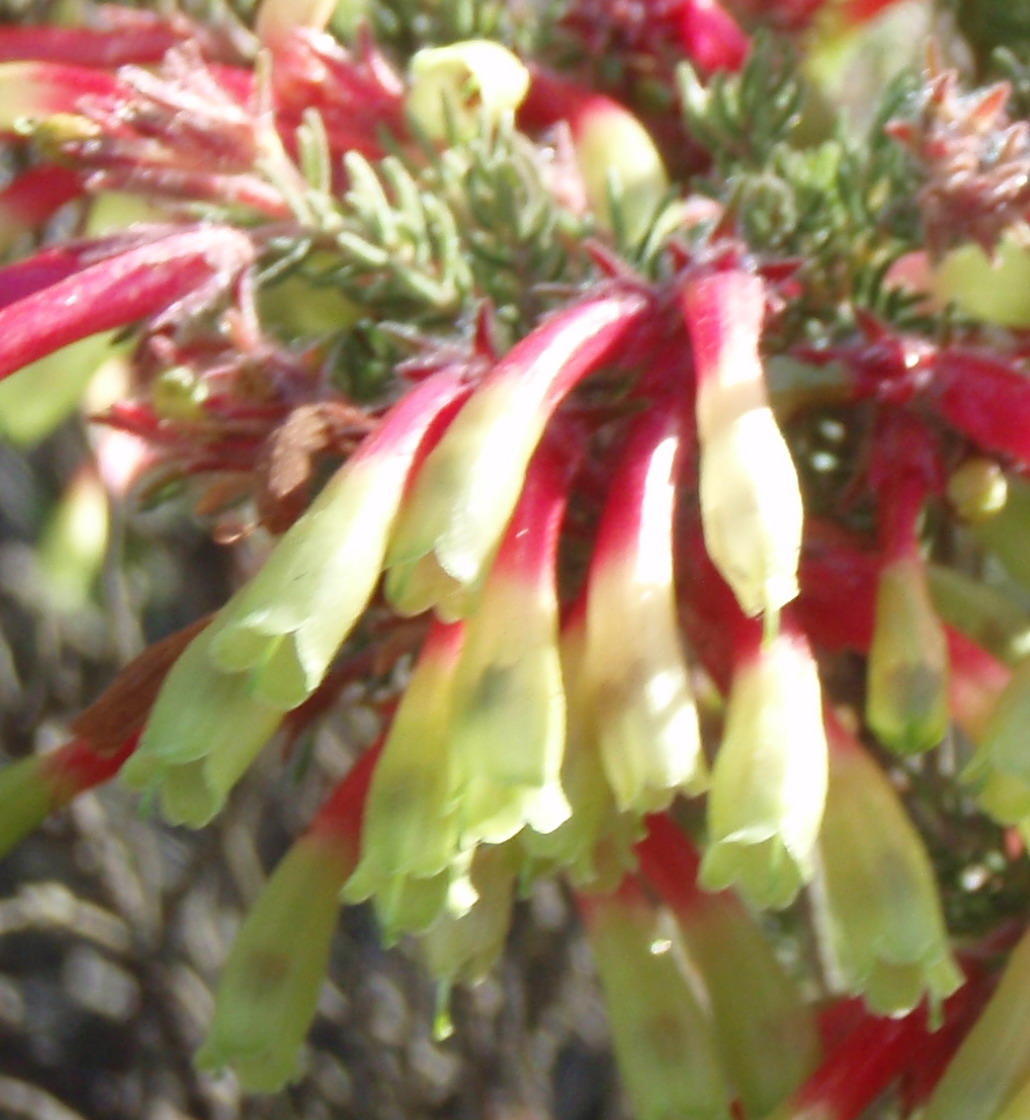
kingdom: Plantae
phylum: Tracheophyta
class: Magnoliopsida
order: Ericales
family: Ericaceae
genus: Erica
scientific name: Erica unicolor
